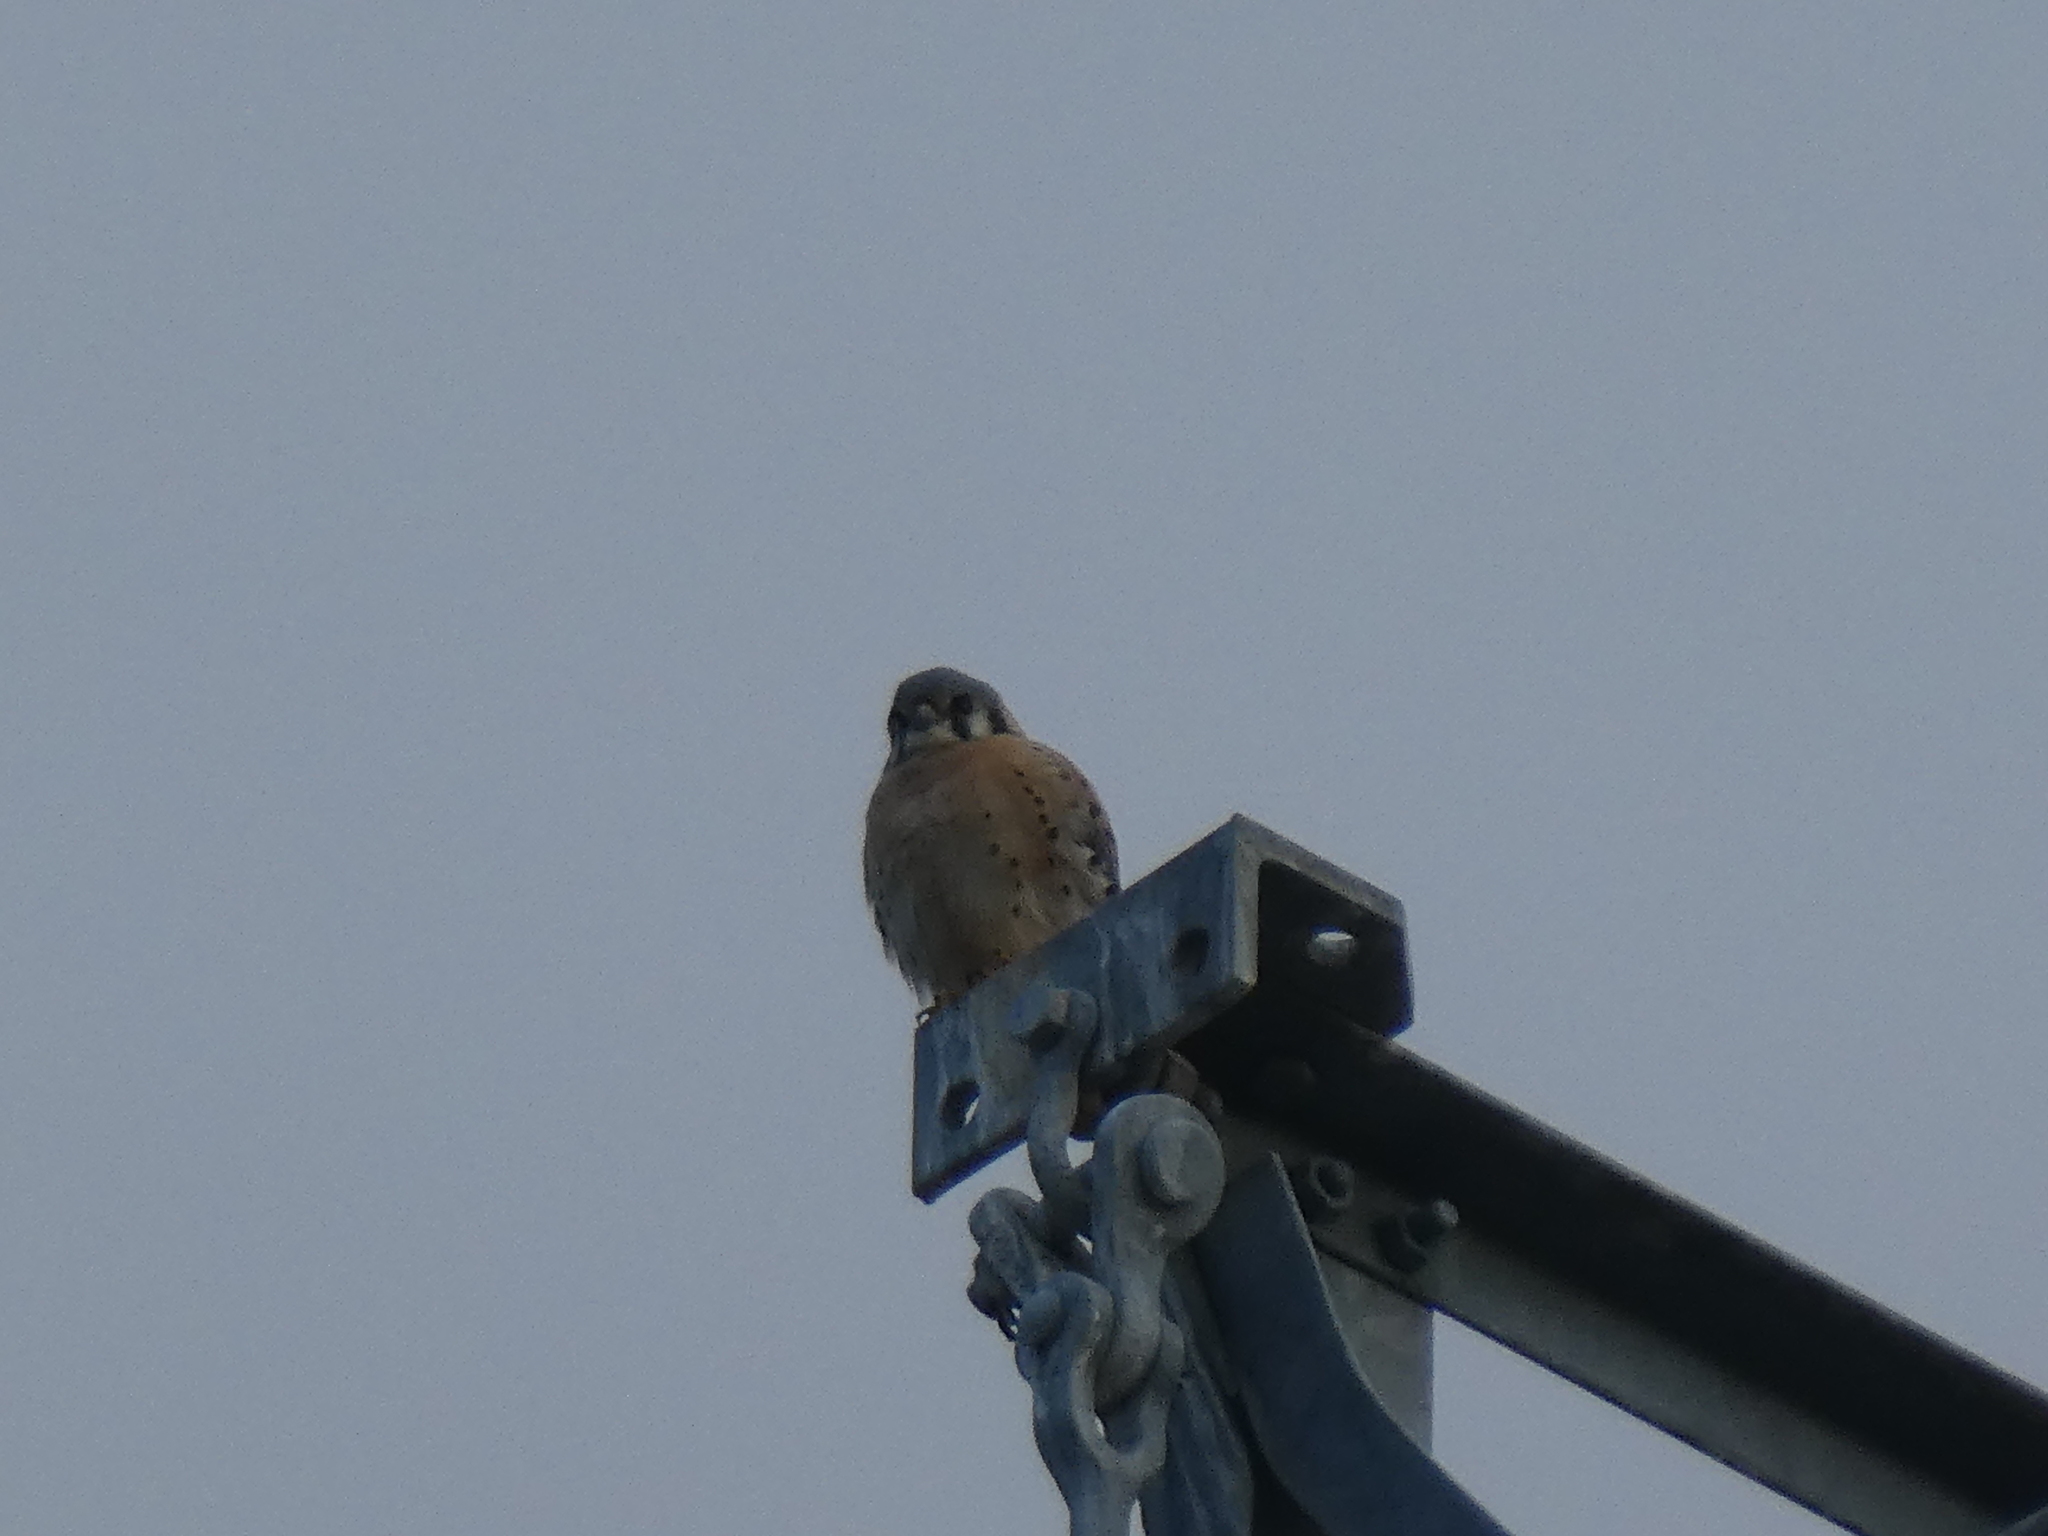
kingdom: Animalia
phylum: Chordata
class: Aves
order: Falconiformes
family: Falconidae
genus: Falco
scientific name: Falco sparverius
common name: American kestrel
